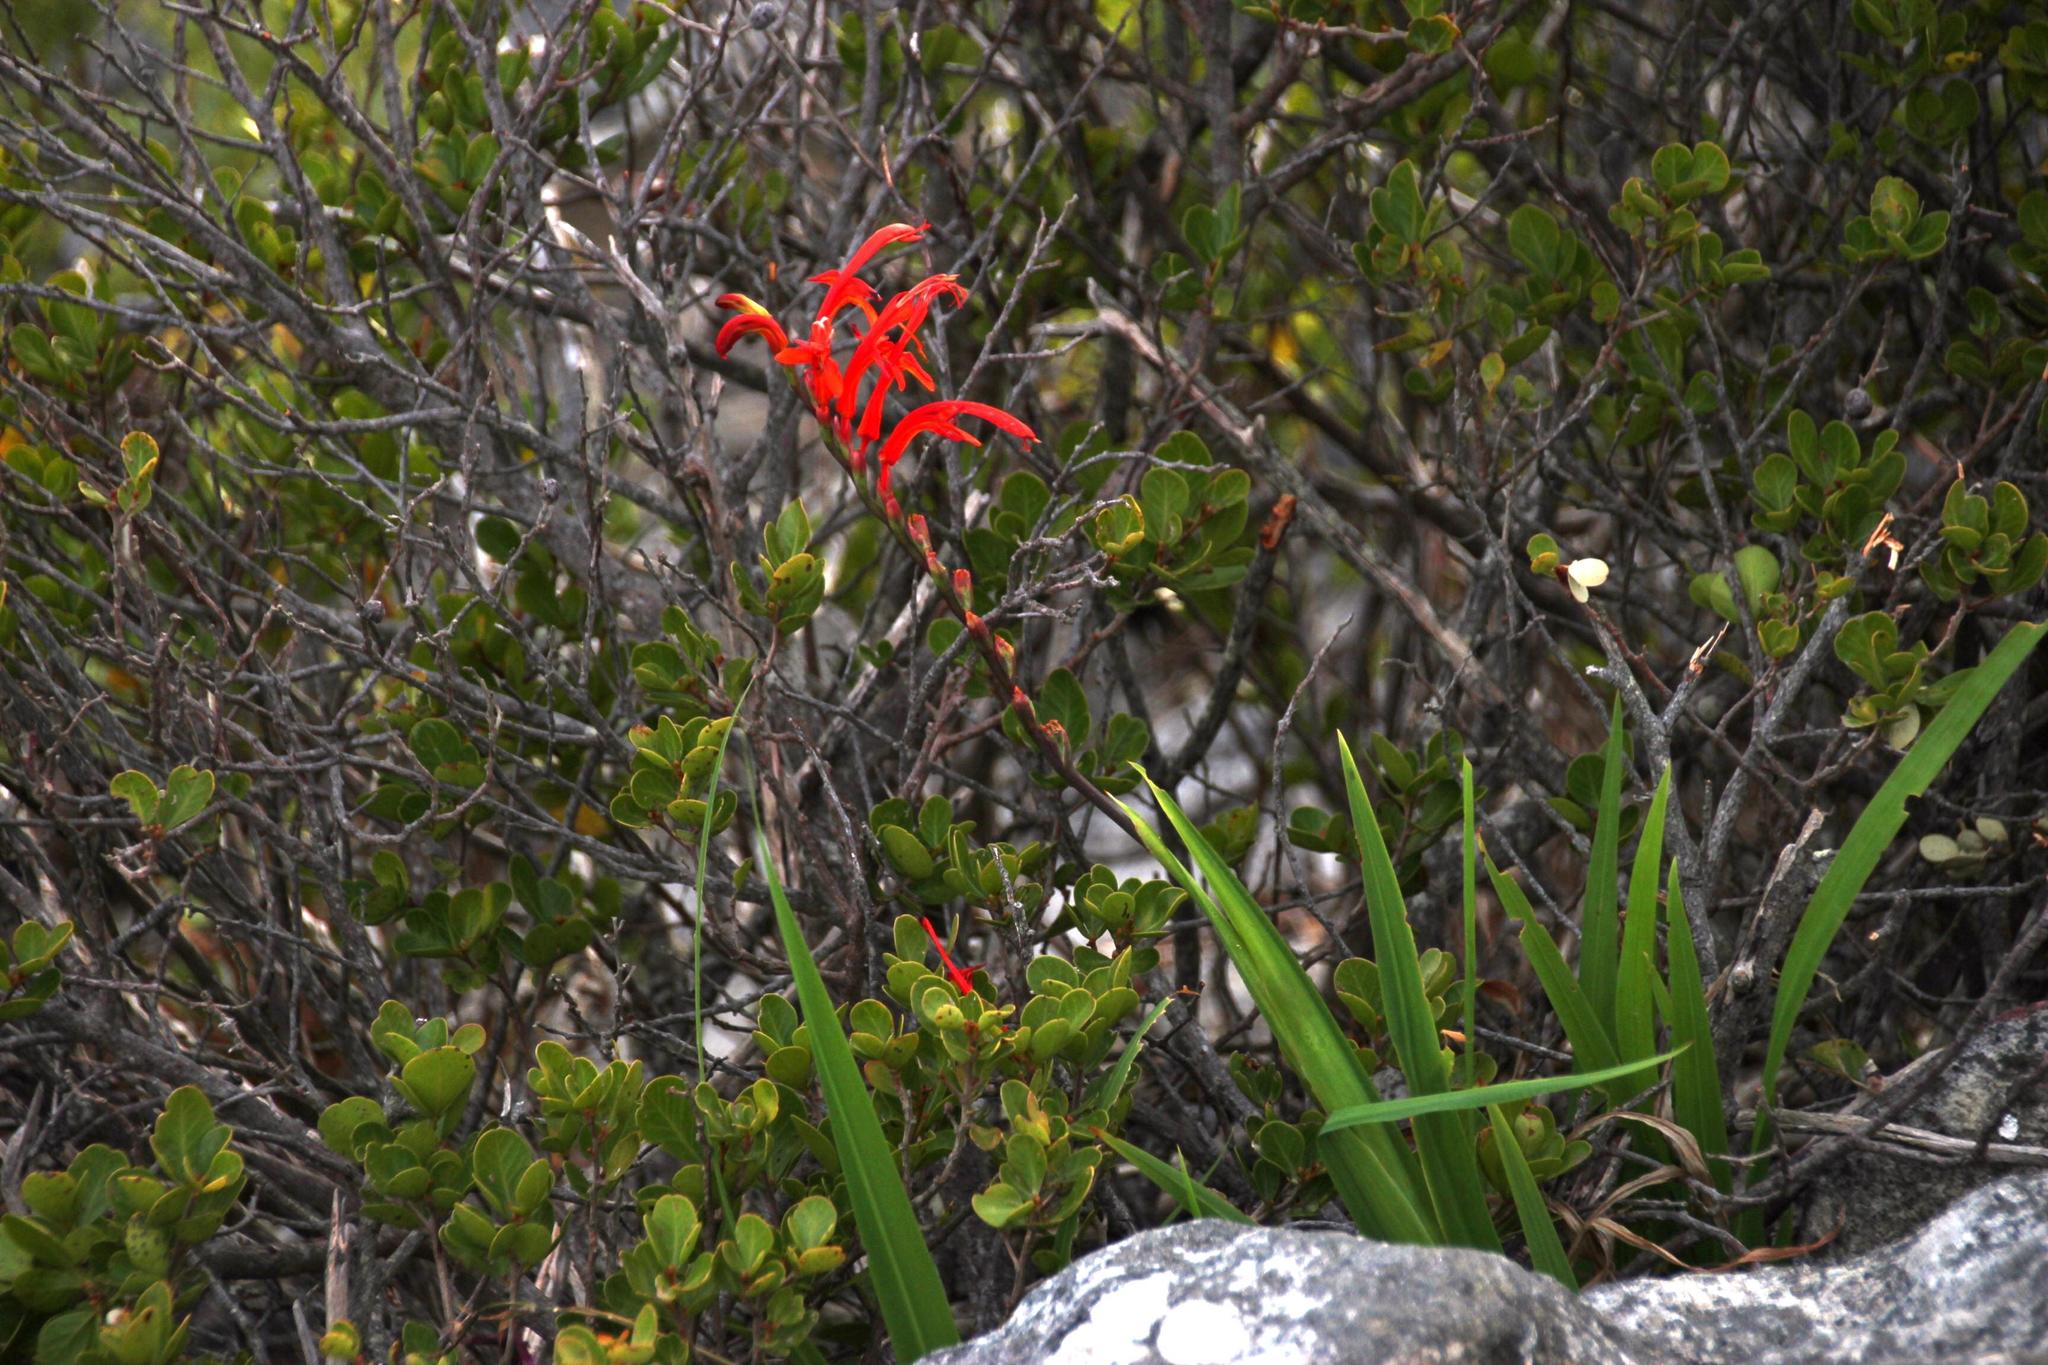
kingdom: Plantae
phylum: Tracheophyta
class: Liliopsida
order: Asparagales
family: Iridaceae
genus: Chasmanthe
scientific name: Chasmanthe aethiopica
